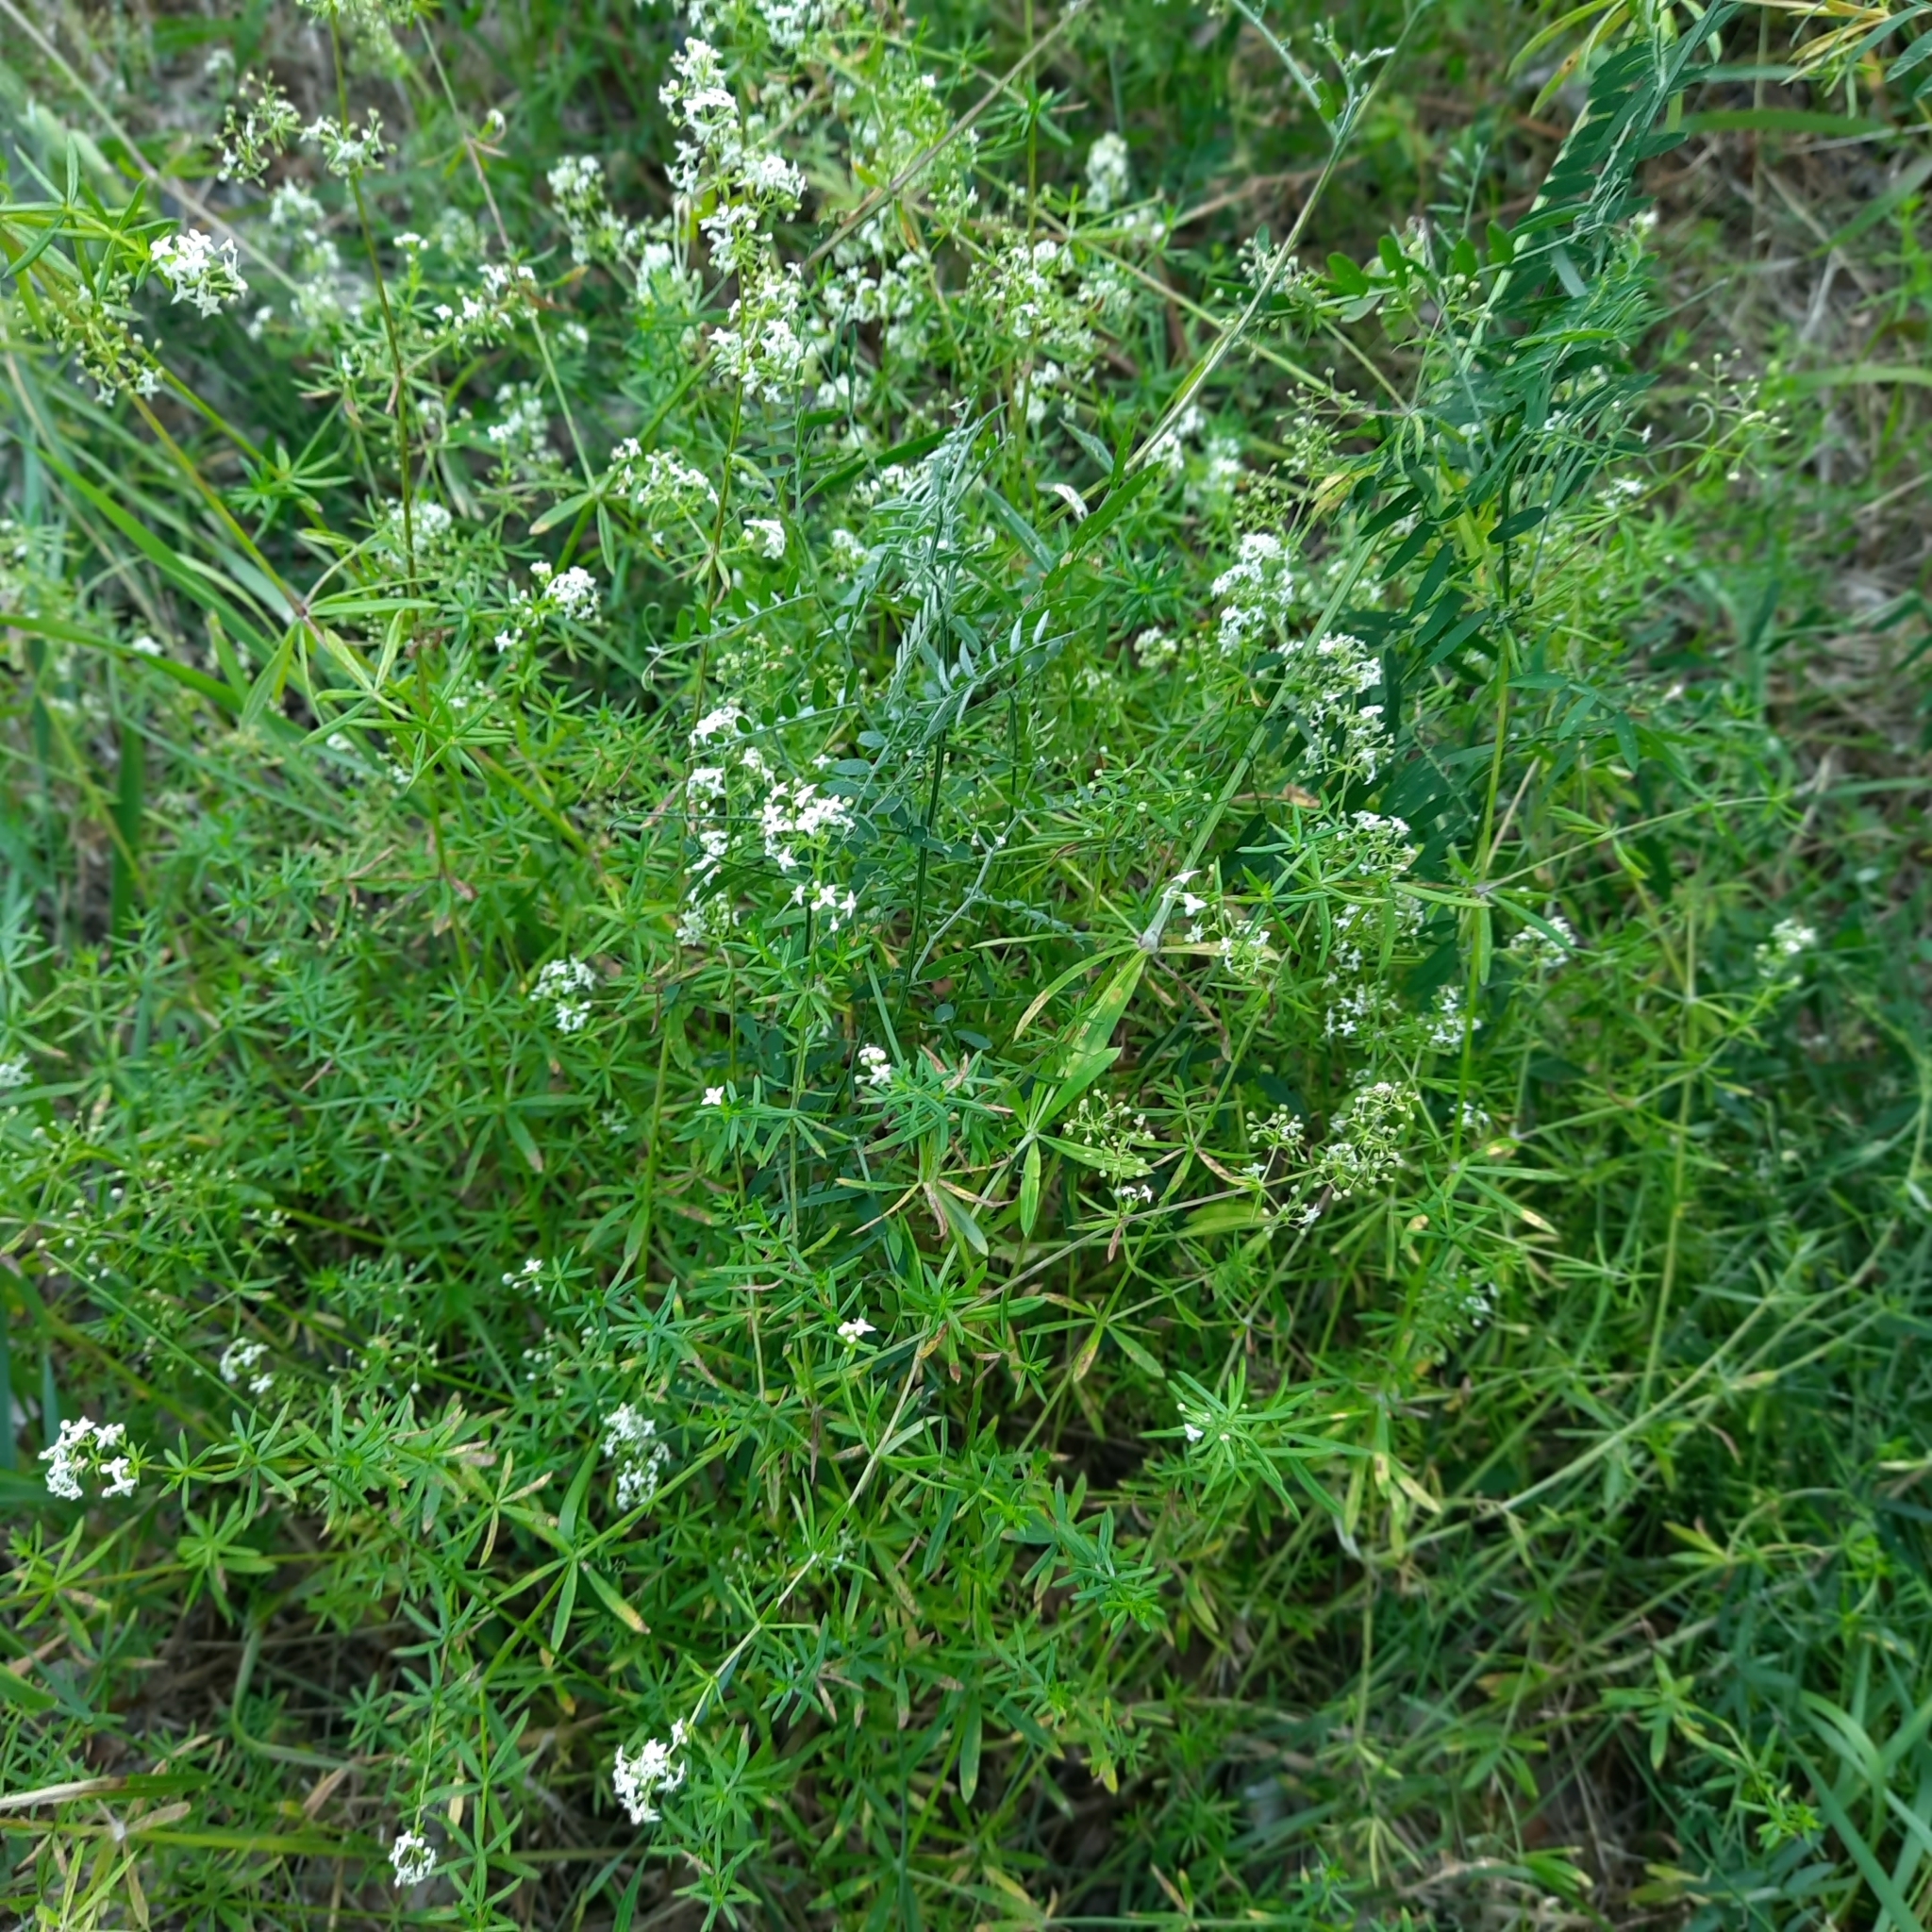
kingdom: Plantae
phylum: Tracheophyta
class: Magnoliopsida
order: Gentianales
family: Rubiaceae
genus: Galium
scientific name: Galium mollugo
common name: Hedge bedstraw
